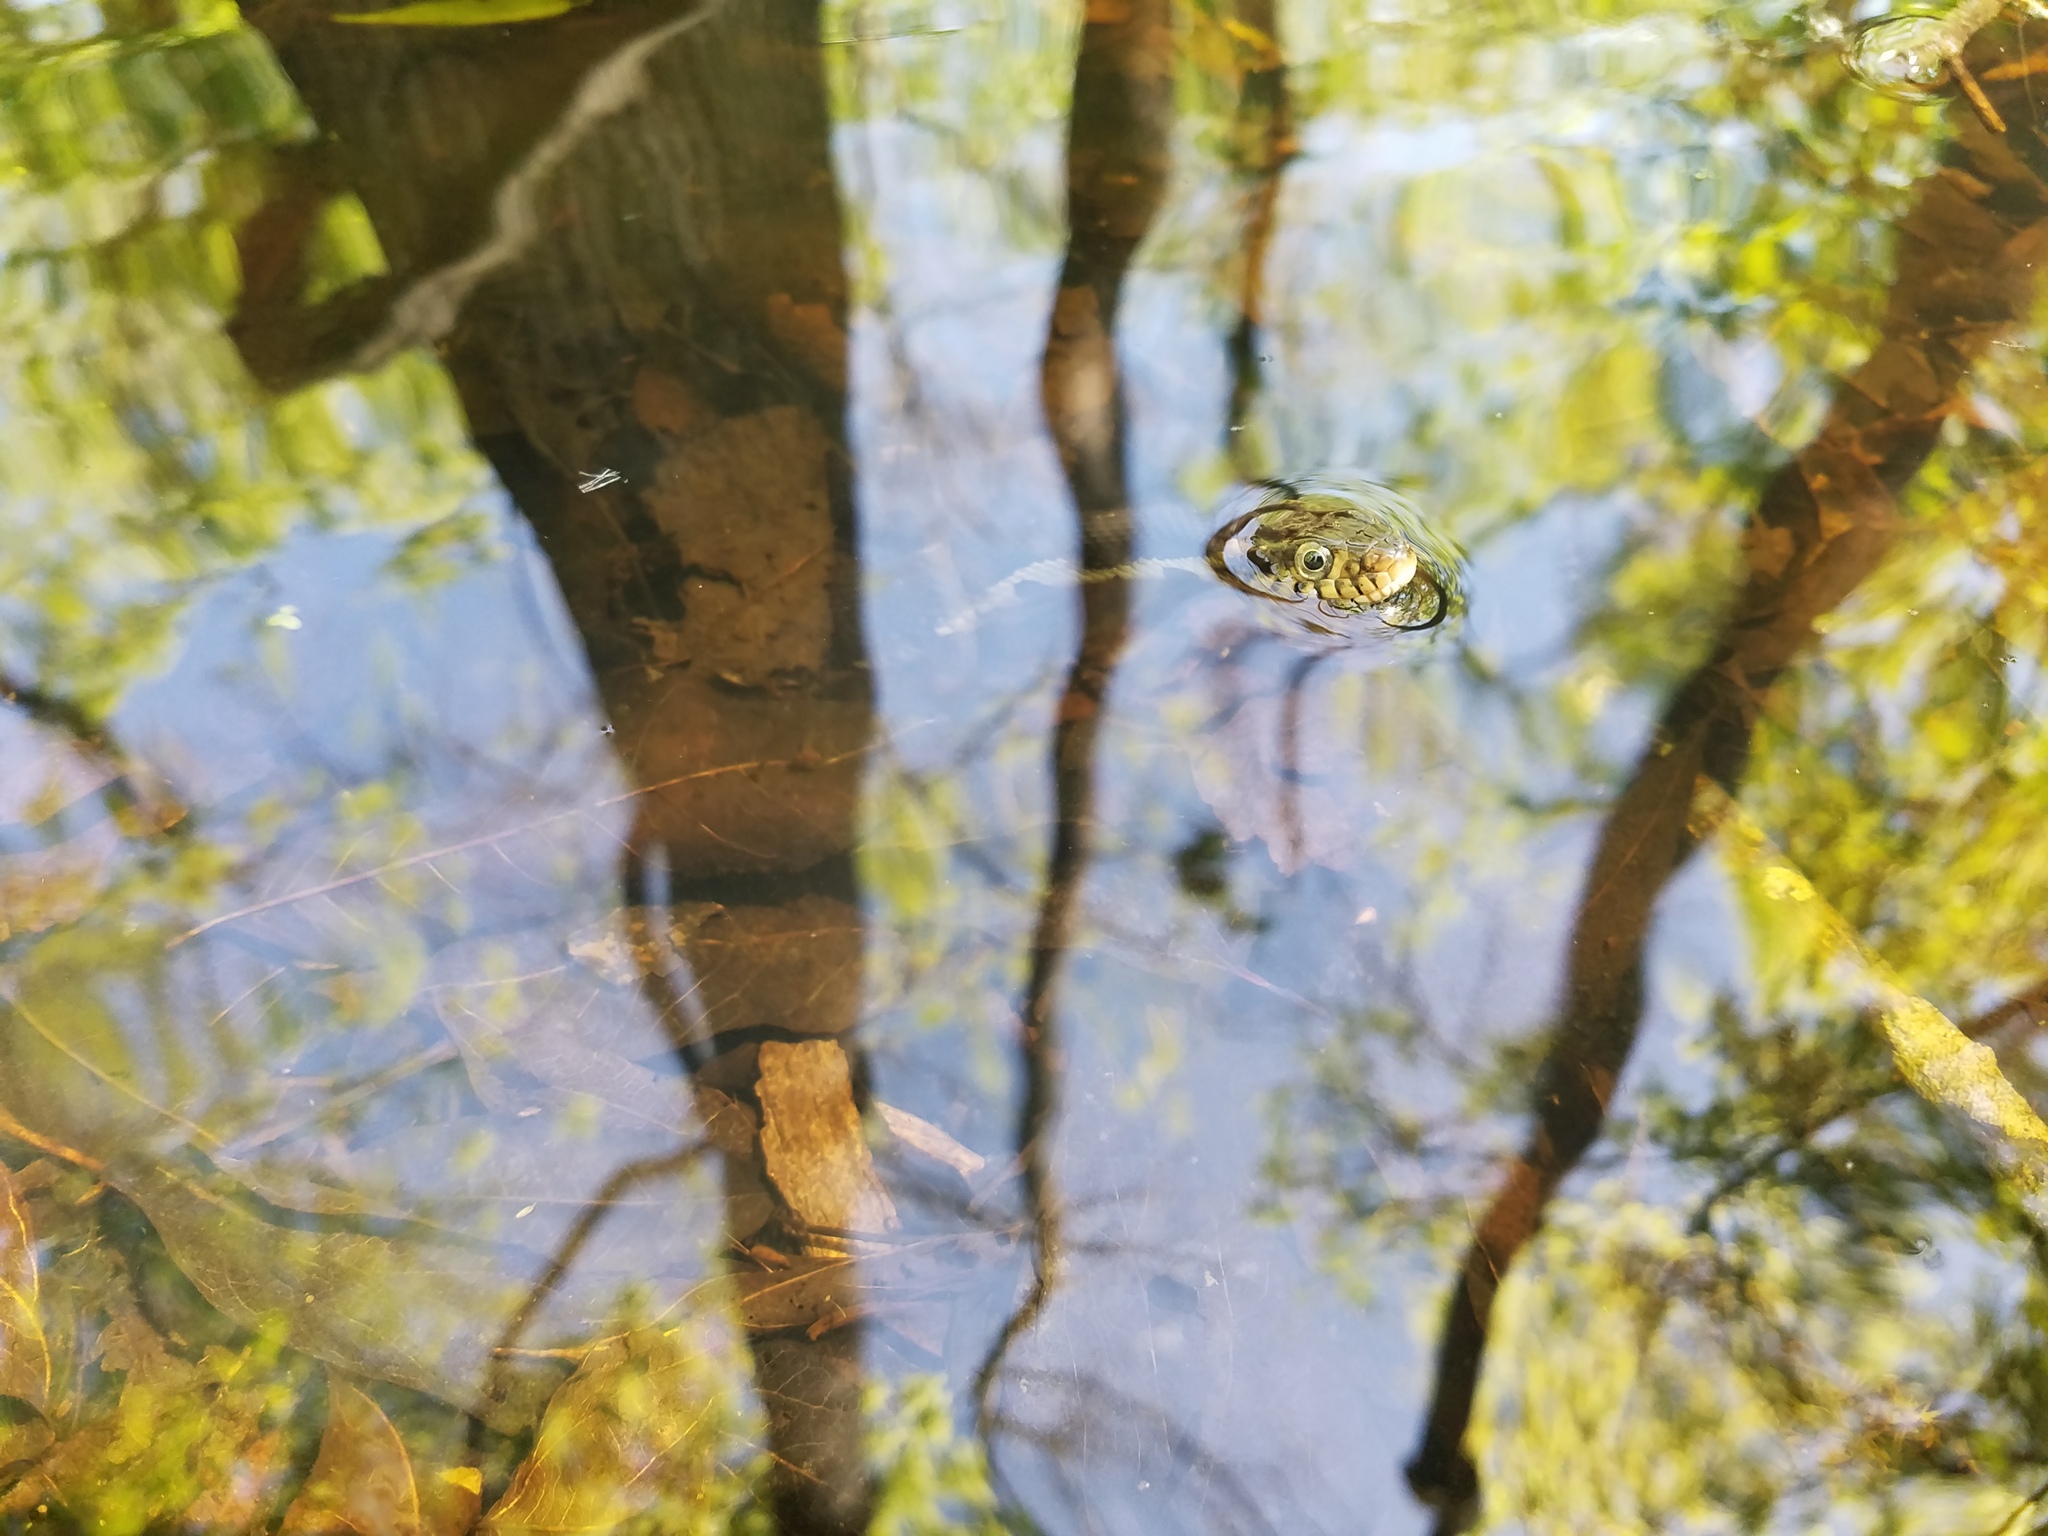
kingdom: Animalia
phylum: Chordata
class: Squamata
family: Colubridae
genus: Nerodia
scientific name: Nerodia fasciata
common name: Southern water snake
